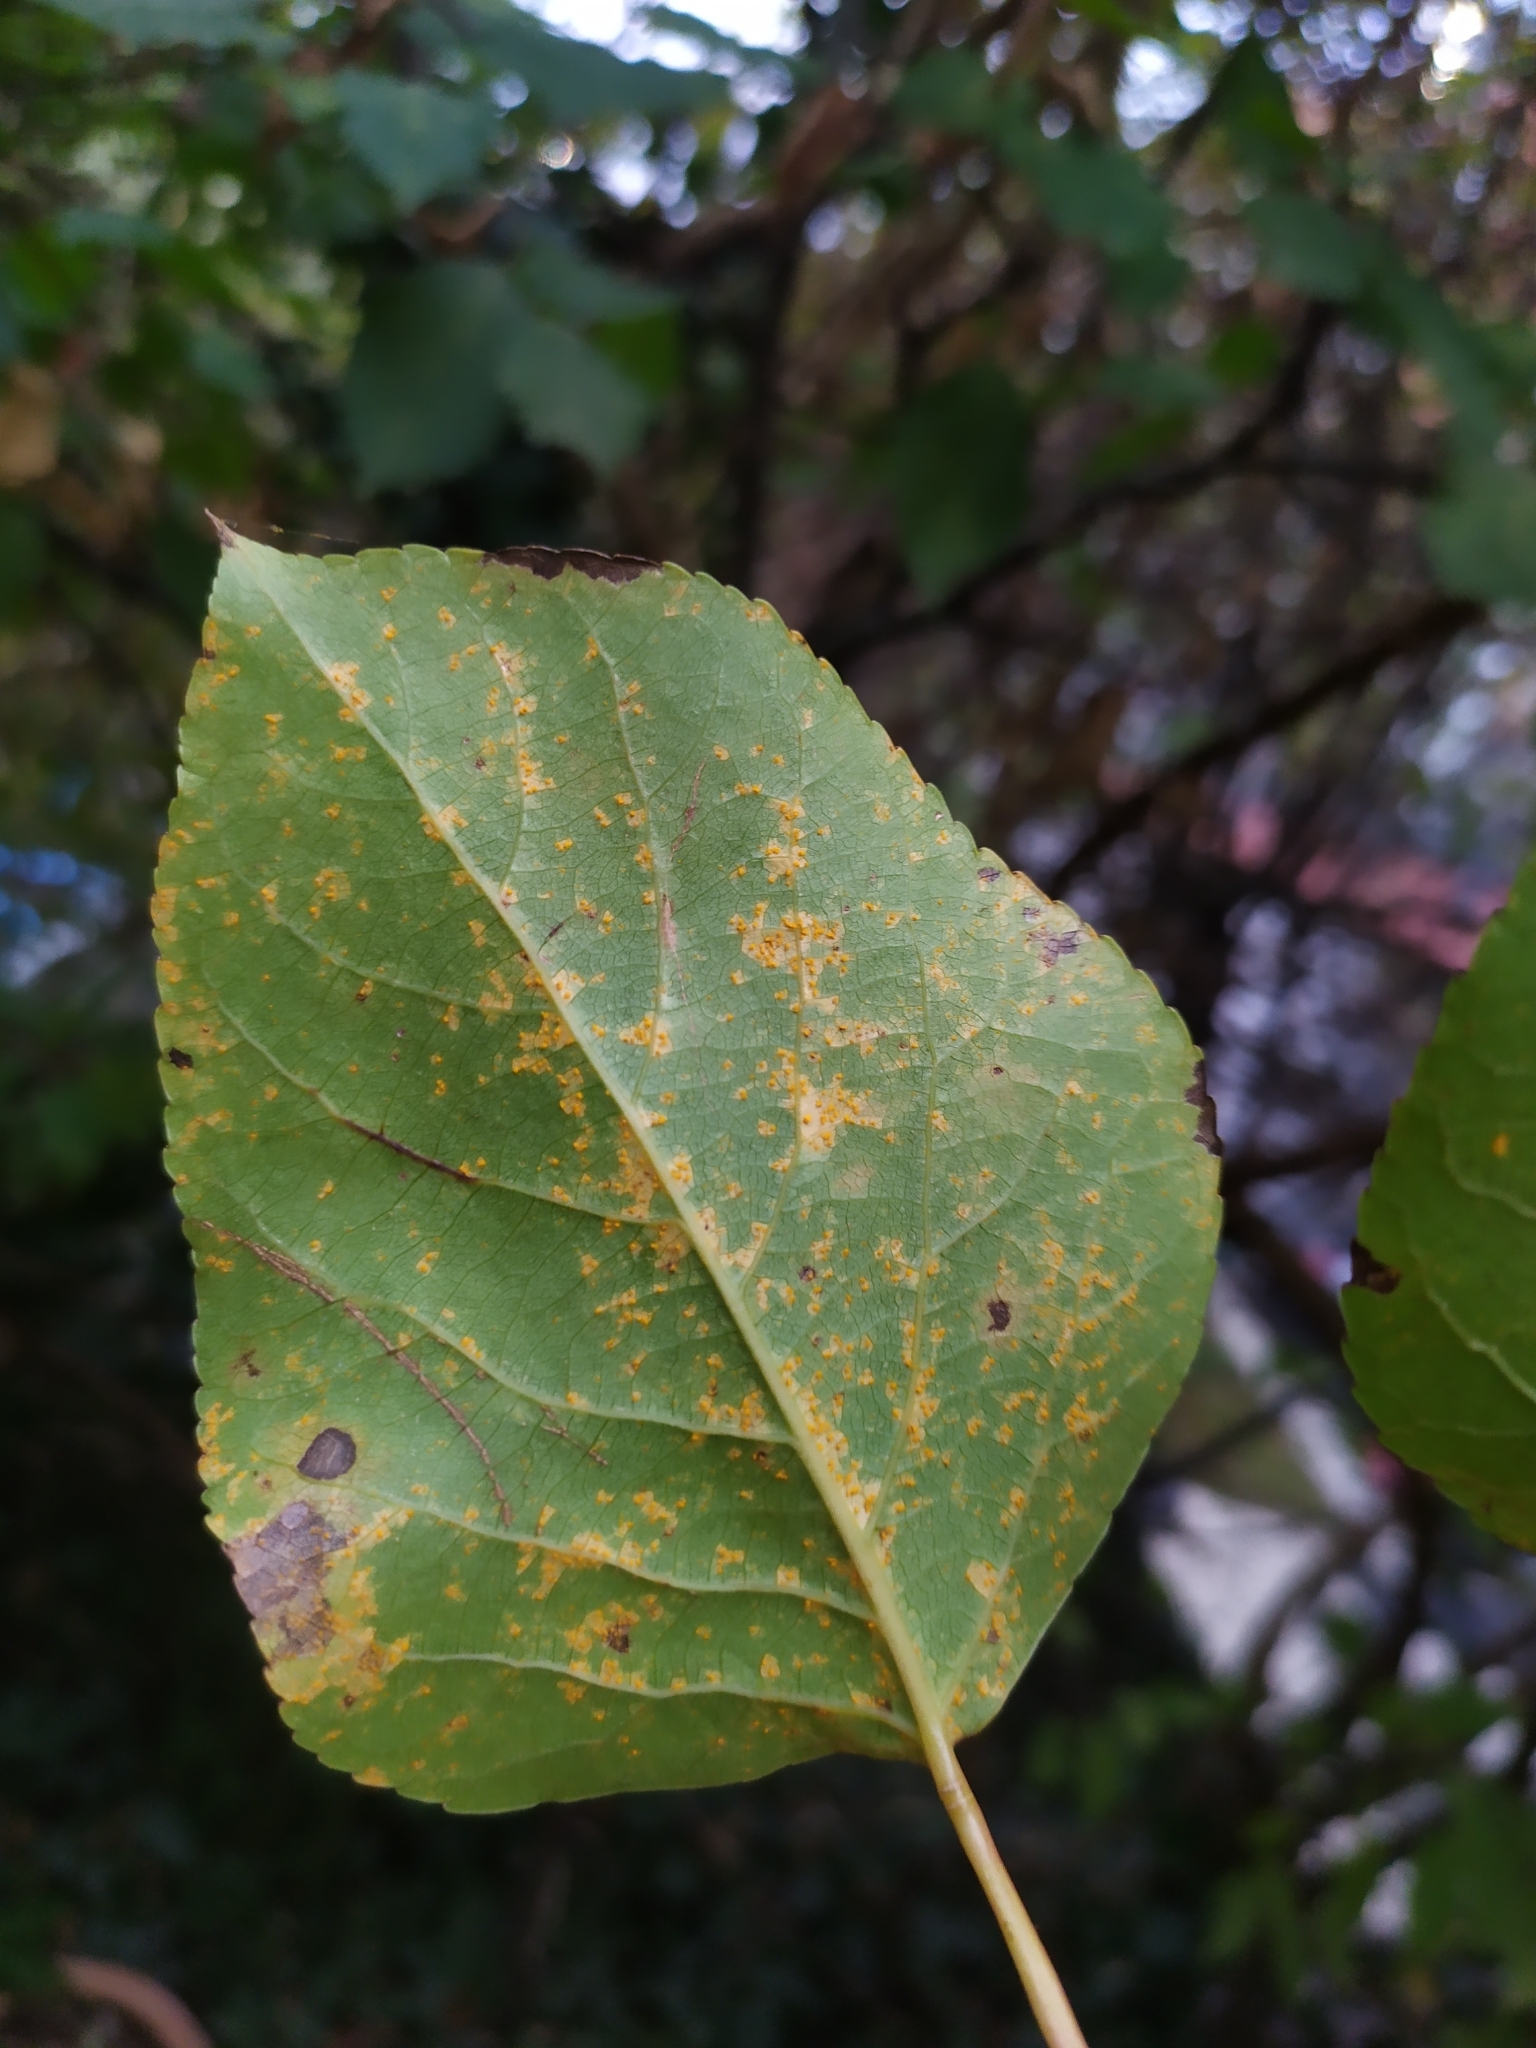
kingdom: Fungi
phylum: Basidiomycota
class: Pucciniomycetes
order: Pucciniales
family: Melampsoraceae
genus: Melampsora
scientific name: Melampsora laricis-populina
